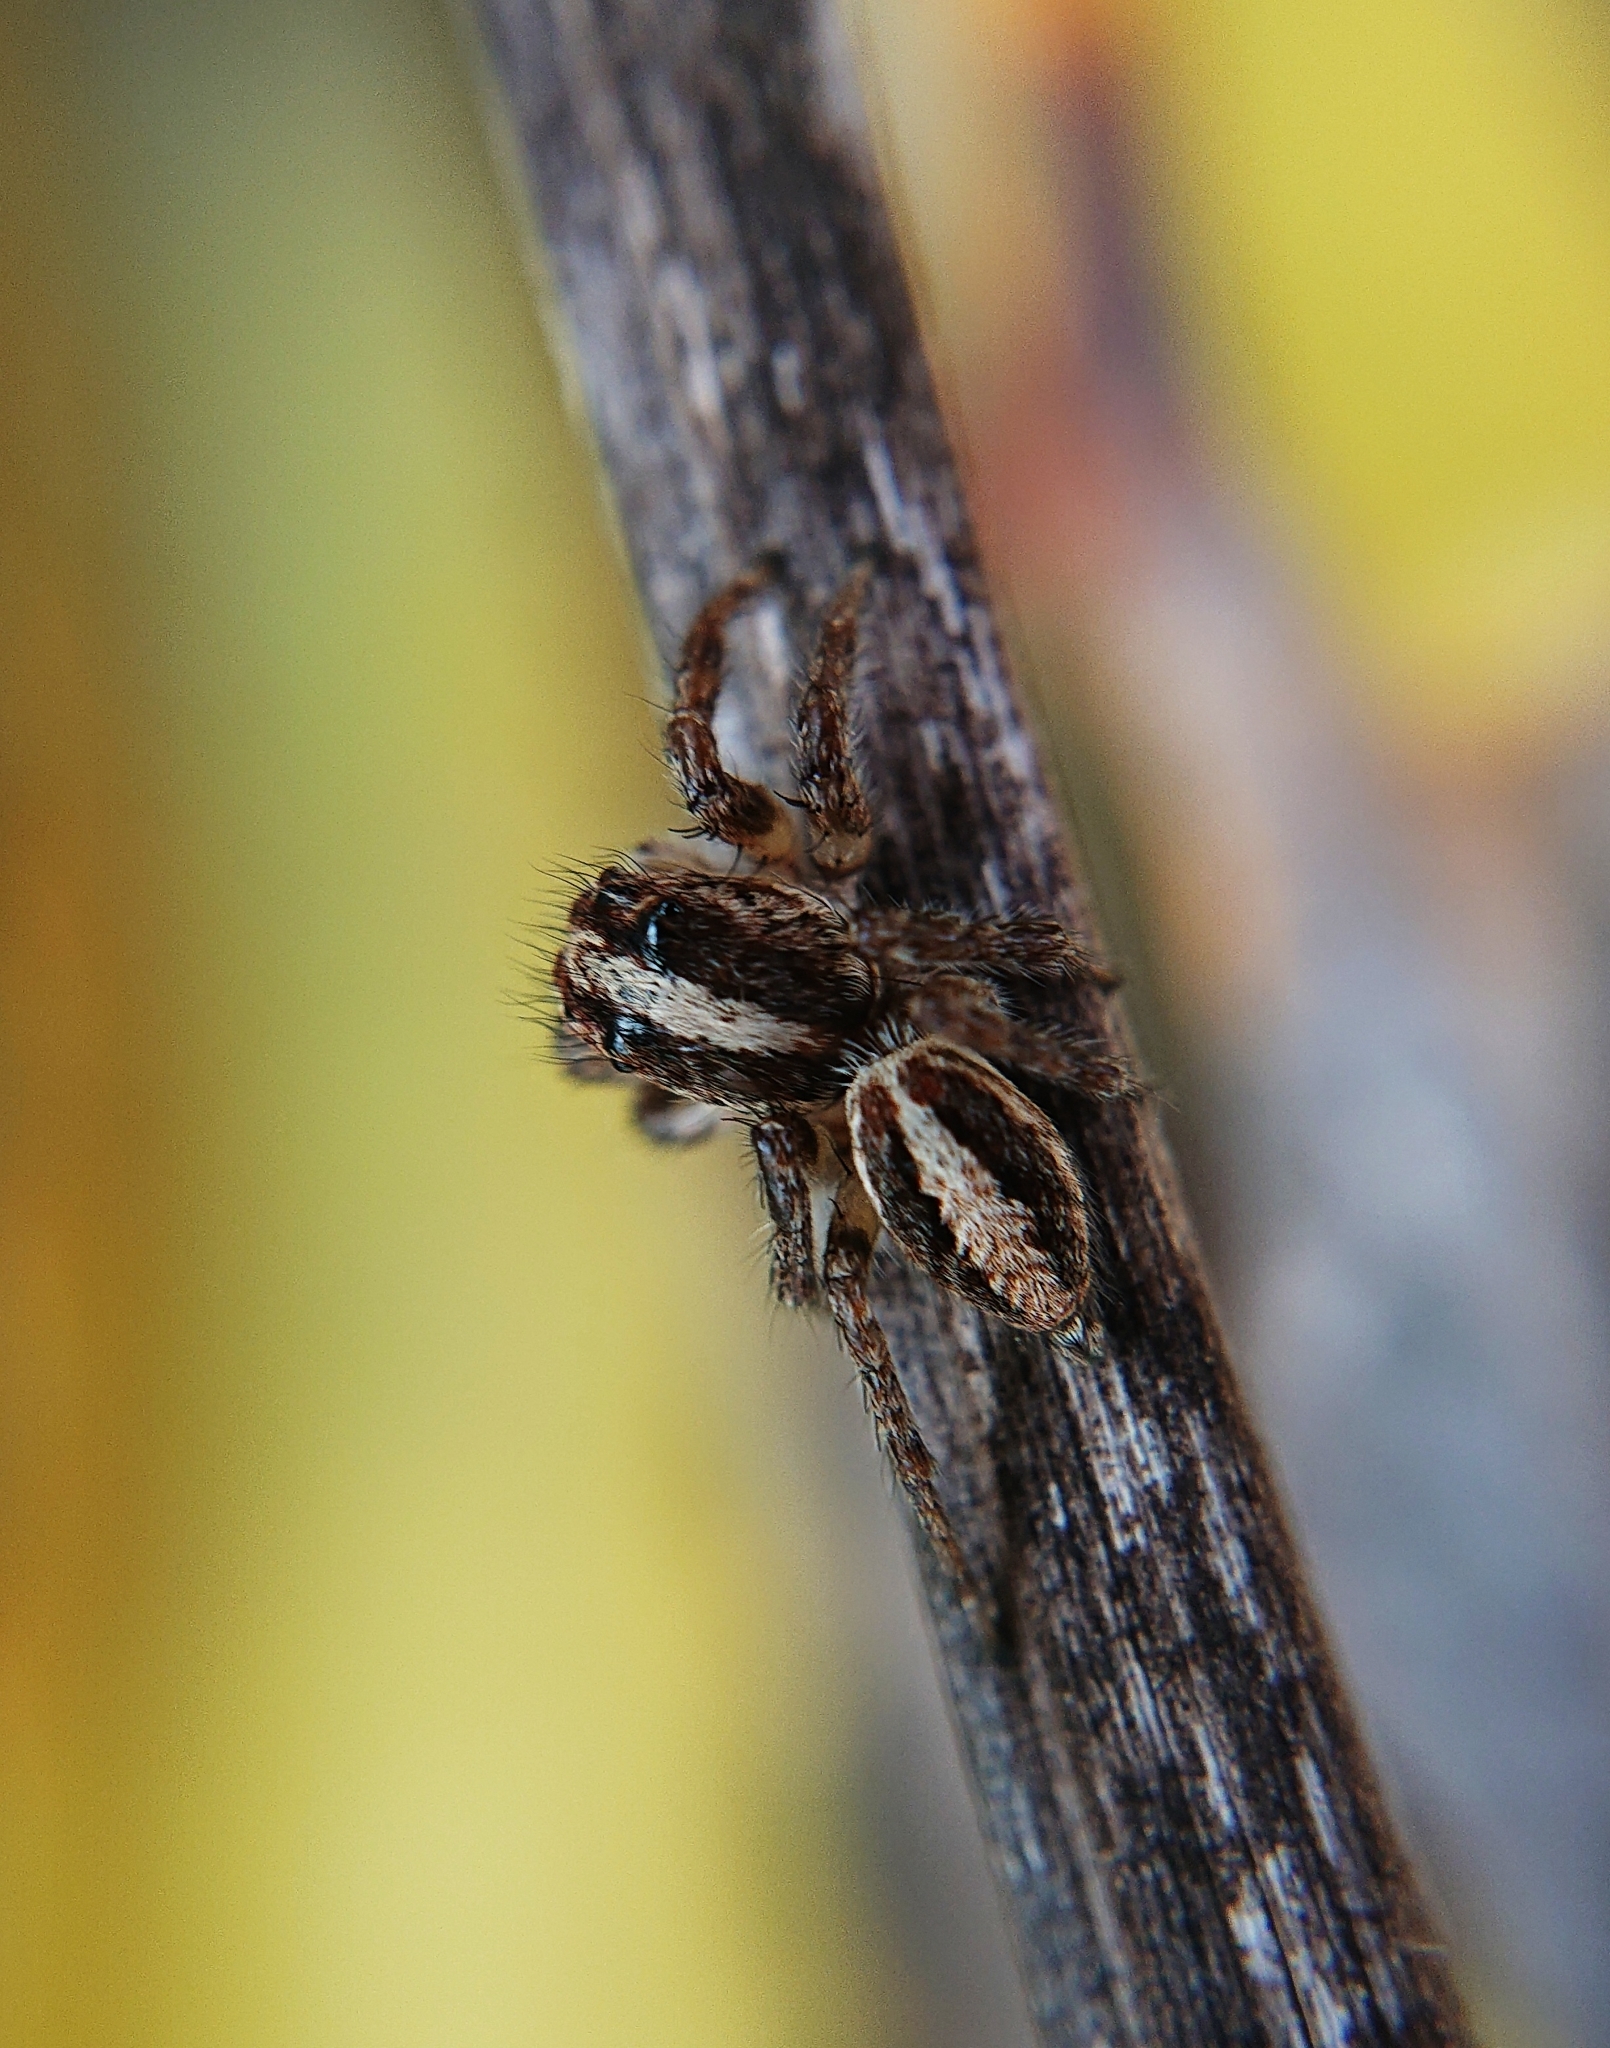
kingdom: Animalia
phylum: Arthropoda
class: Arachnida
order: Araneae
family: Salticidae
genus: Frigga
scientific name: Frigga crocuta
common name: Jumping spiders
